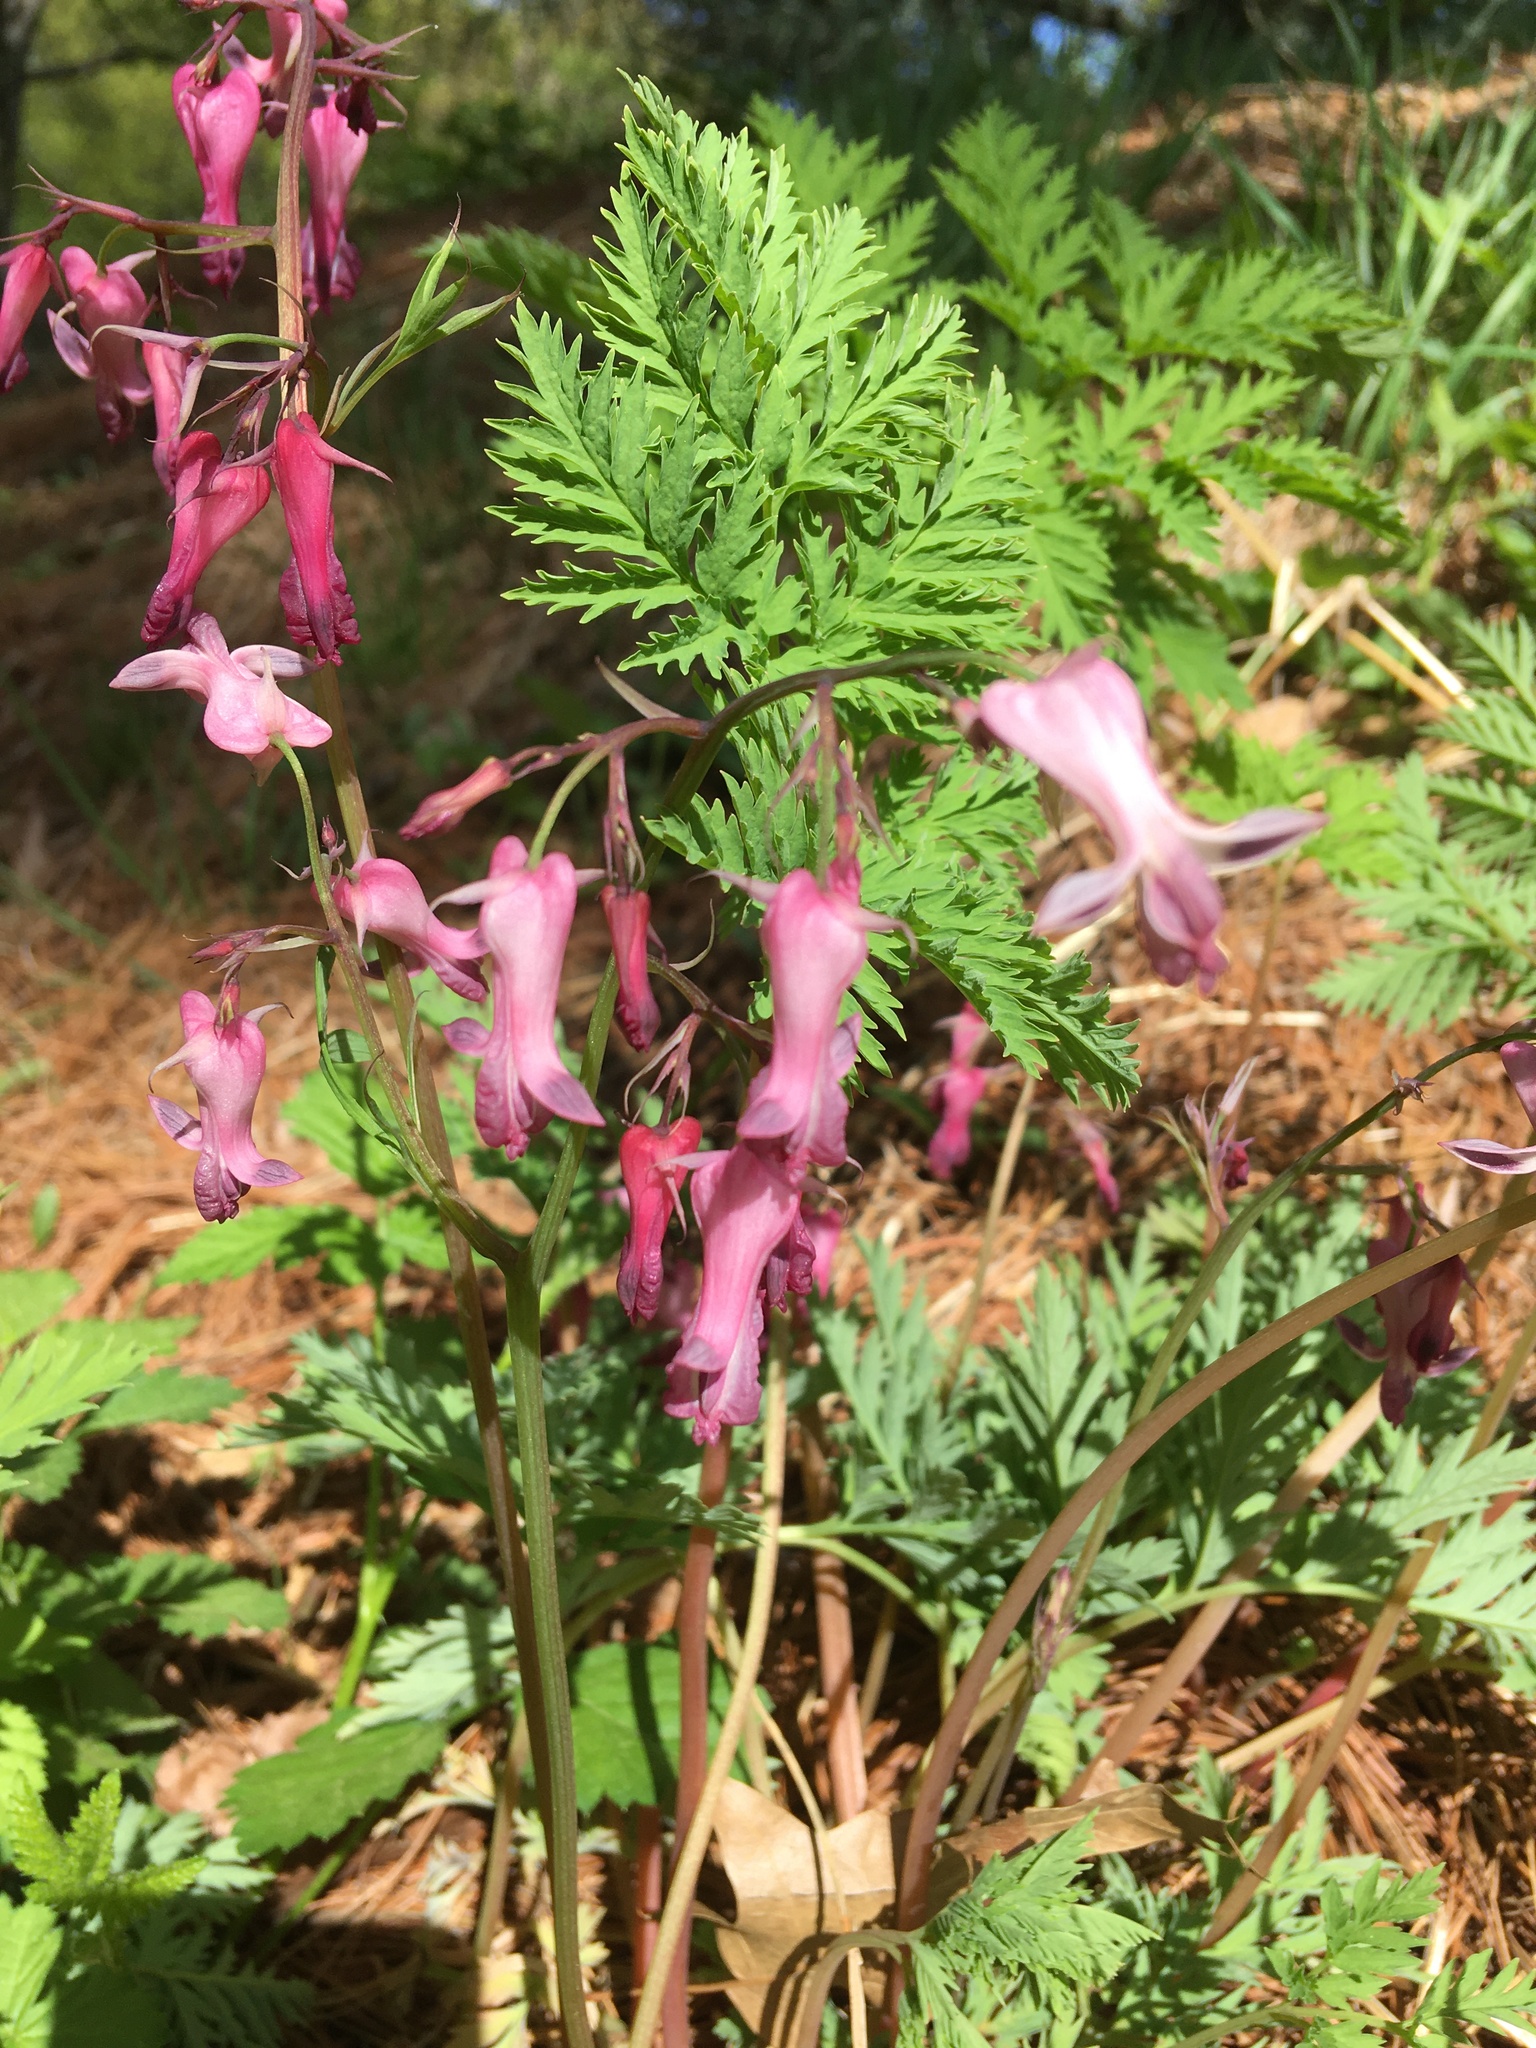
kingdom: Plantae
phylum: Tracheophyta
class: Magnoliopsida
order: Ranunculales
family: Papaveraceae
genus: Dicentra
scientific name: Dicentra eximia
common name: Turkey-corn
